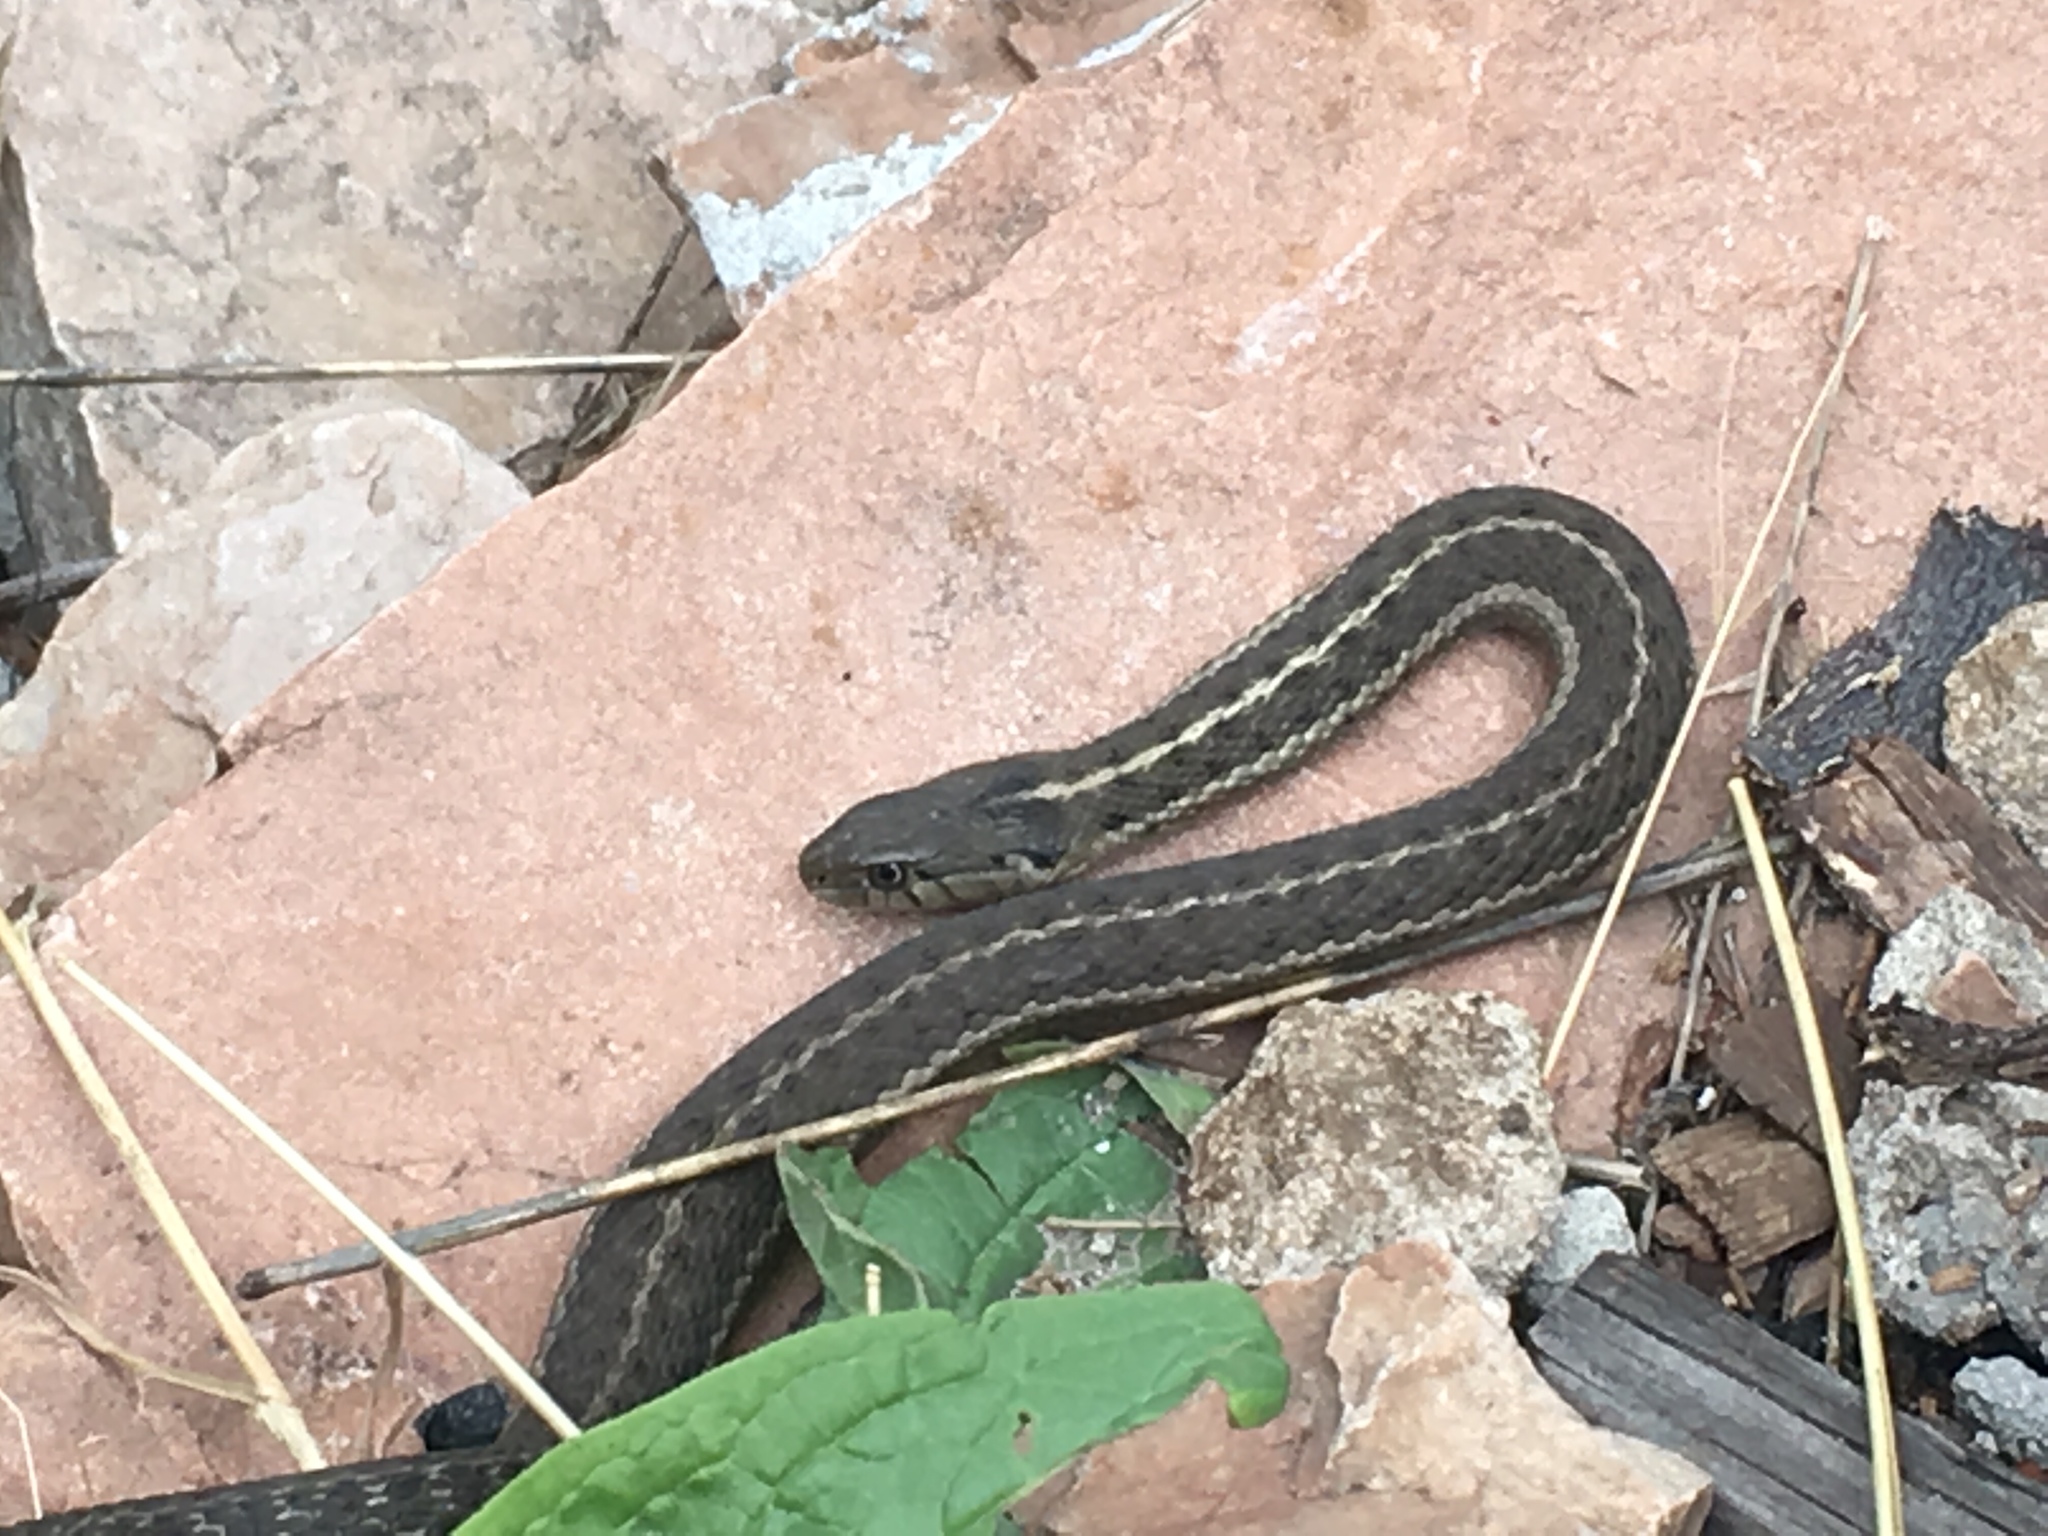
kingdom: Animalia
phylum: Chordata
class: Squamata
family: Colubridae
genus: Thamnophis
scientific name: Thamnophis elegans
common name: Western terrestrial garter snake
